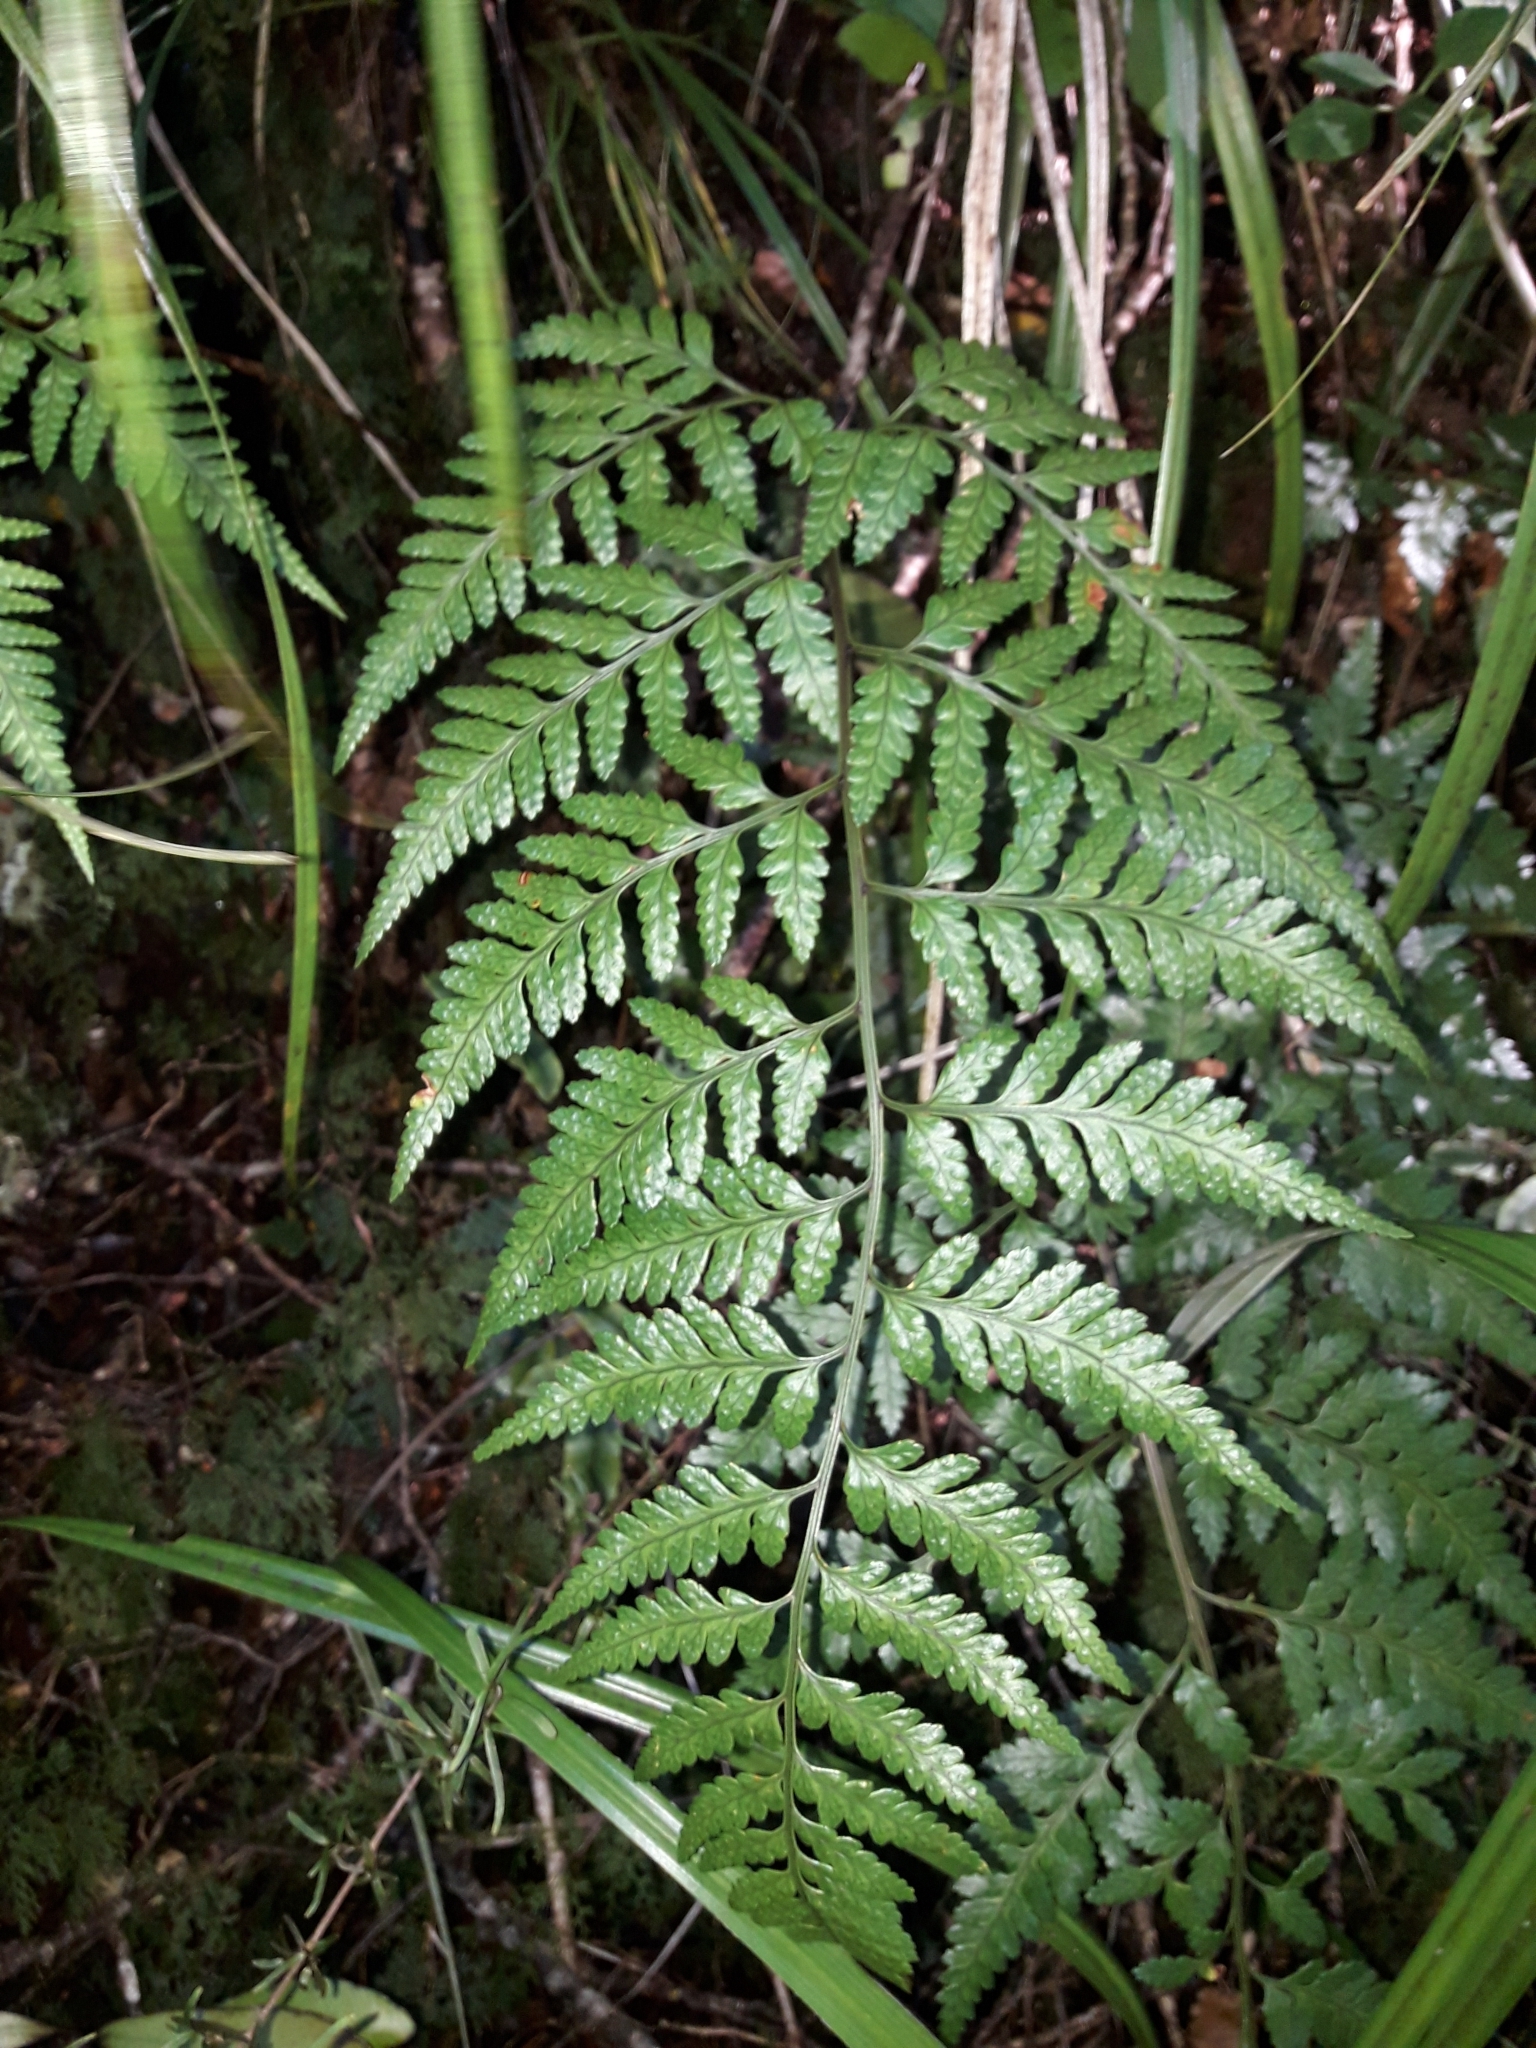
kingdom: Plantae
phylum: Tracheophyta
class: Polypodiopsida
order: Polypodiales
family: Dryopteridaceae
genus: Rumohra
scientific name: Rumohra adiantiformis
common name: Leather fern
